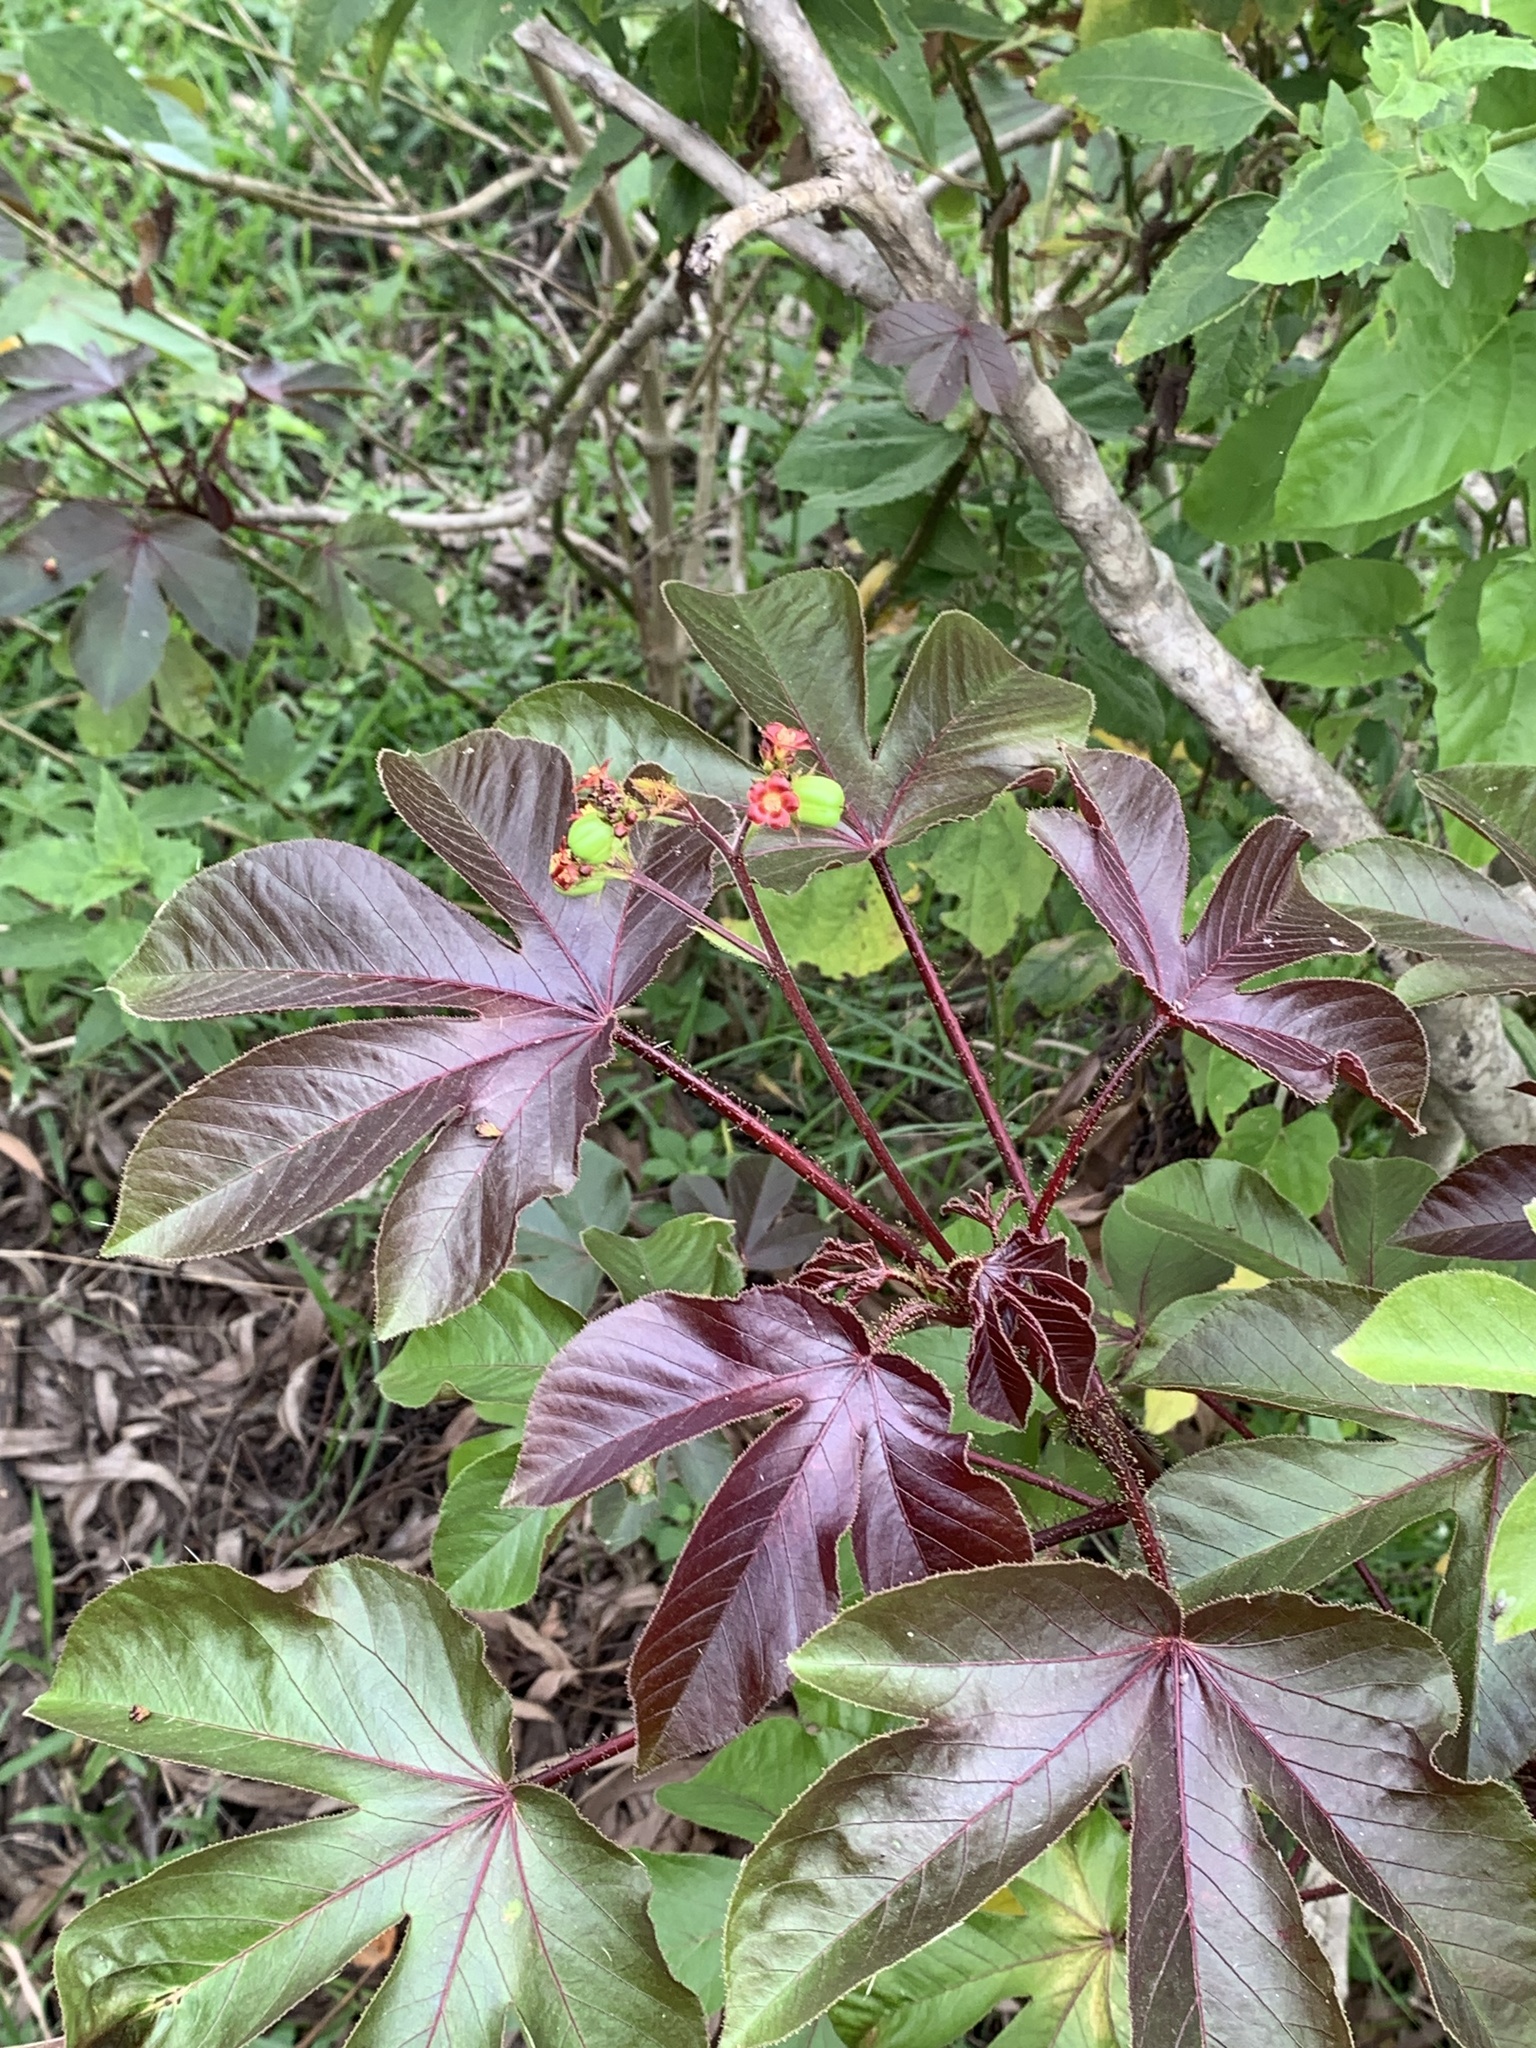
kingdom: Plantae
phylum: Tracheophyta
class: Magnoliopsida
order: Malpighiales
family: Euphorbiaceae
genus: Jatropha
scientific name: Jatropha gossypiifolia
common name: Bellyache bush
